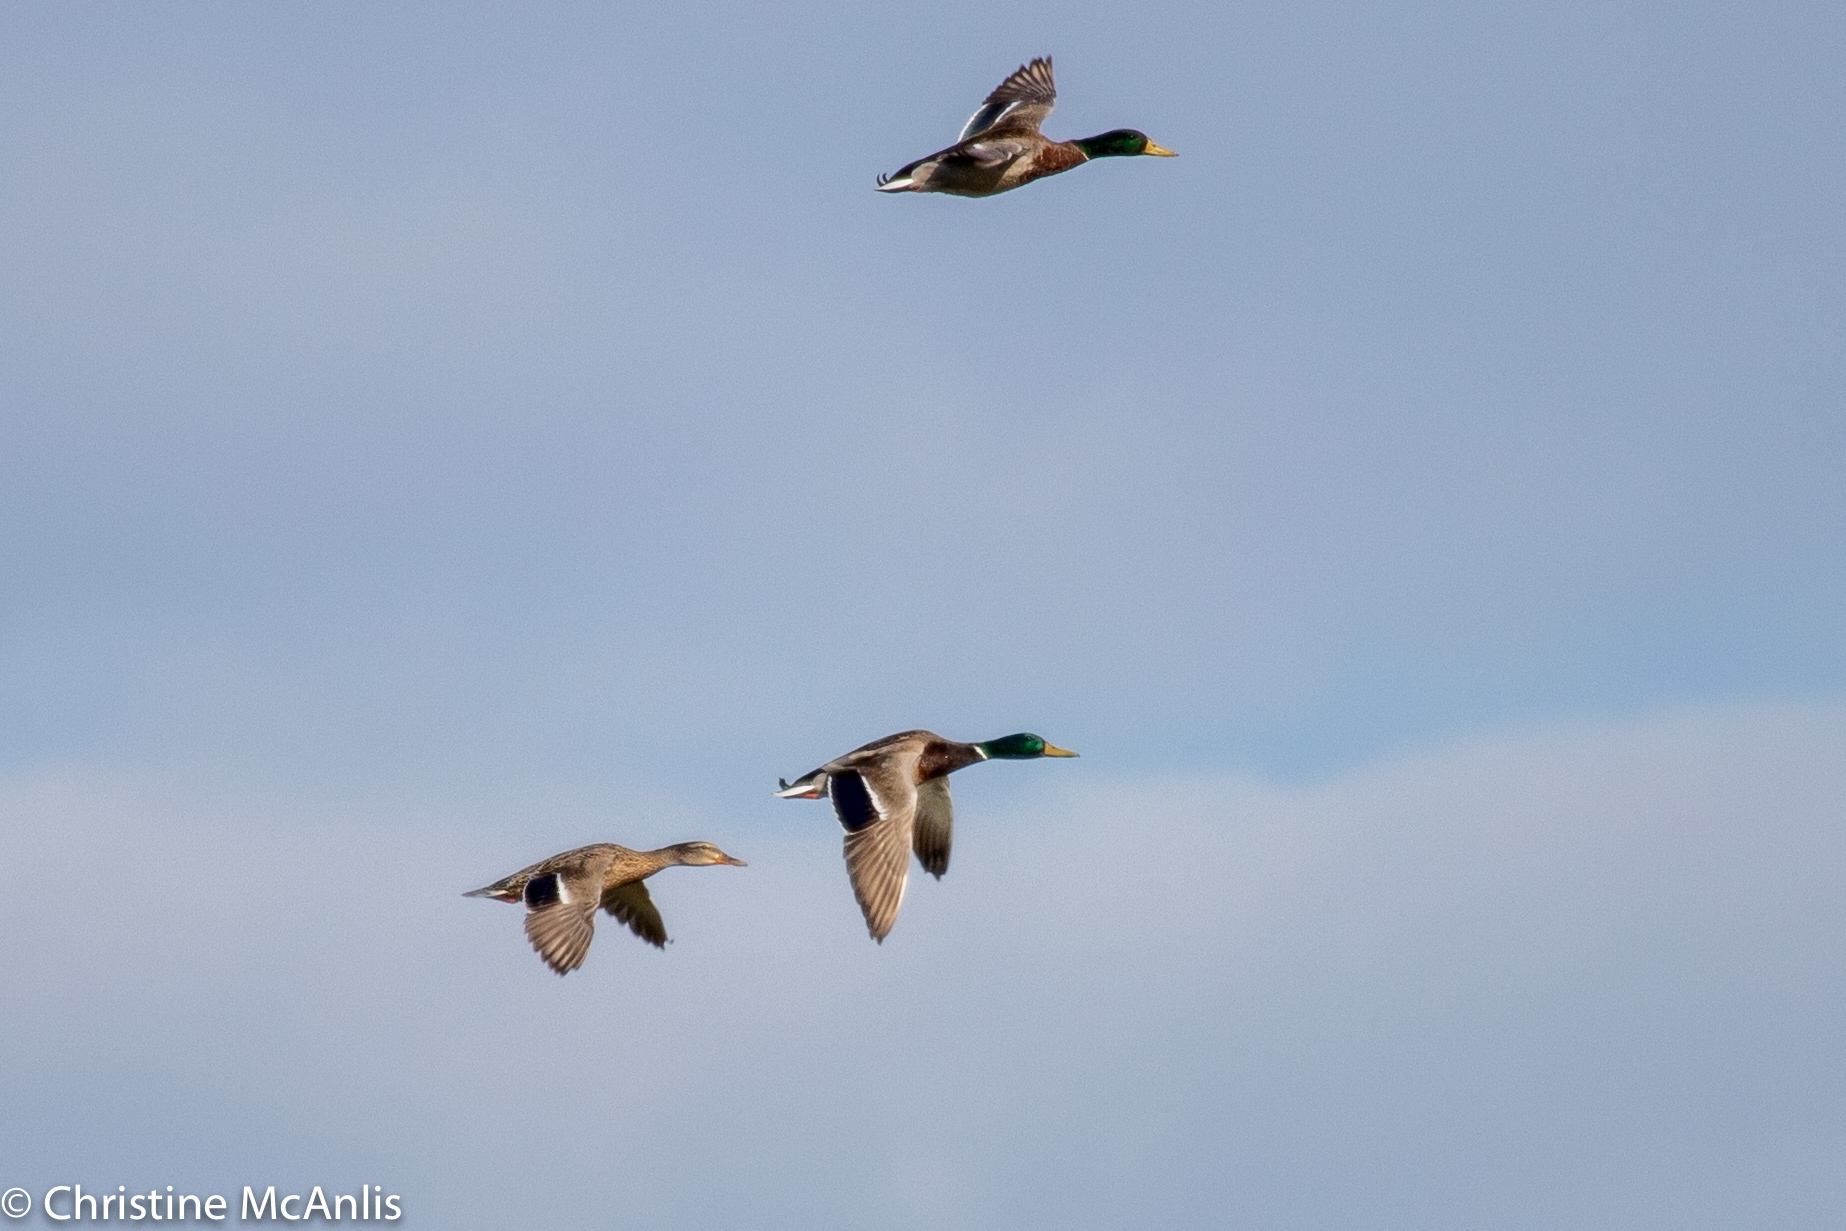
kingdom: Animalia
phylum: Chordata
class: Aves
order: Anseriformes
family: Anatidae
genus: Anas
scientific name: Anas platyrhynchos
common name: Mallard
